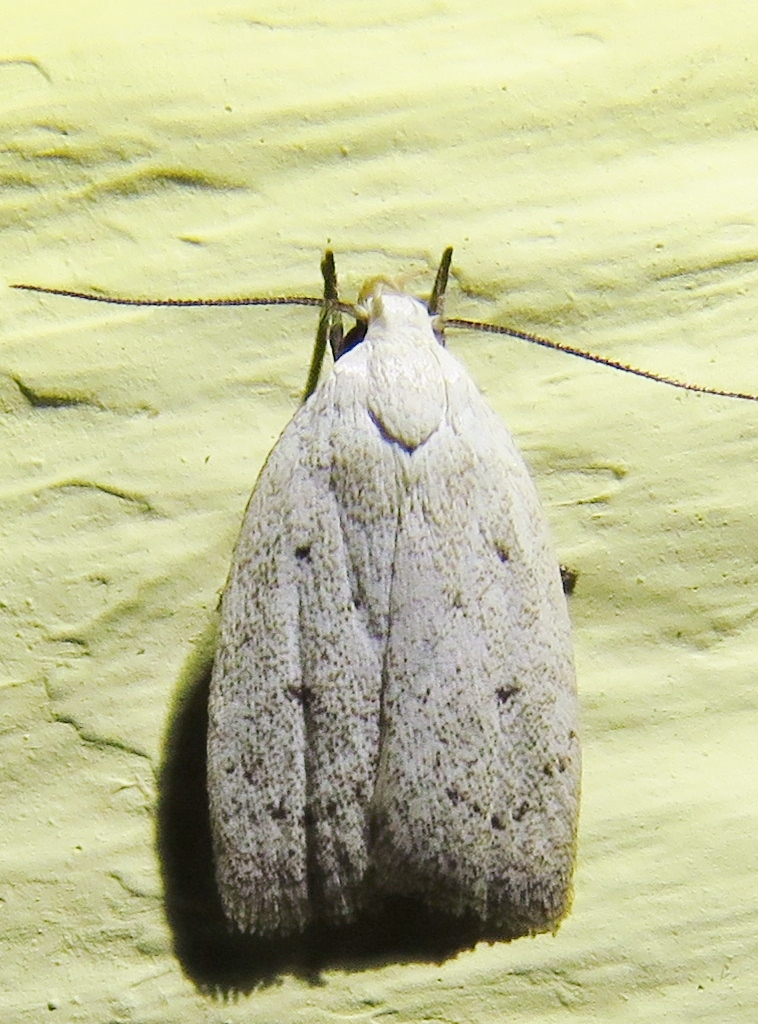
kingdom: Animalia
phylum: Arthropoda
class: Insecta
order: Lepidoptera
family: Oecophoridae
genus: Inga
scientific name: Inga cretacea
